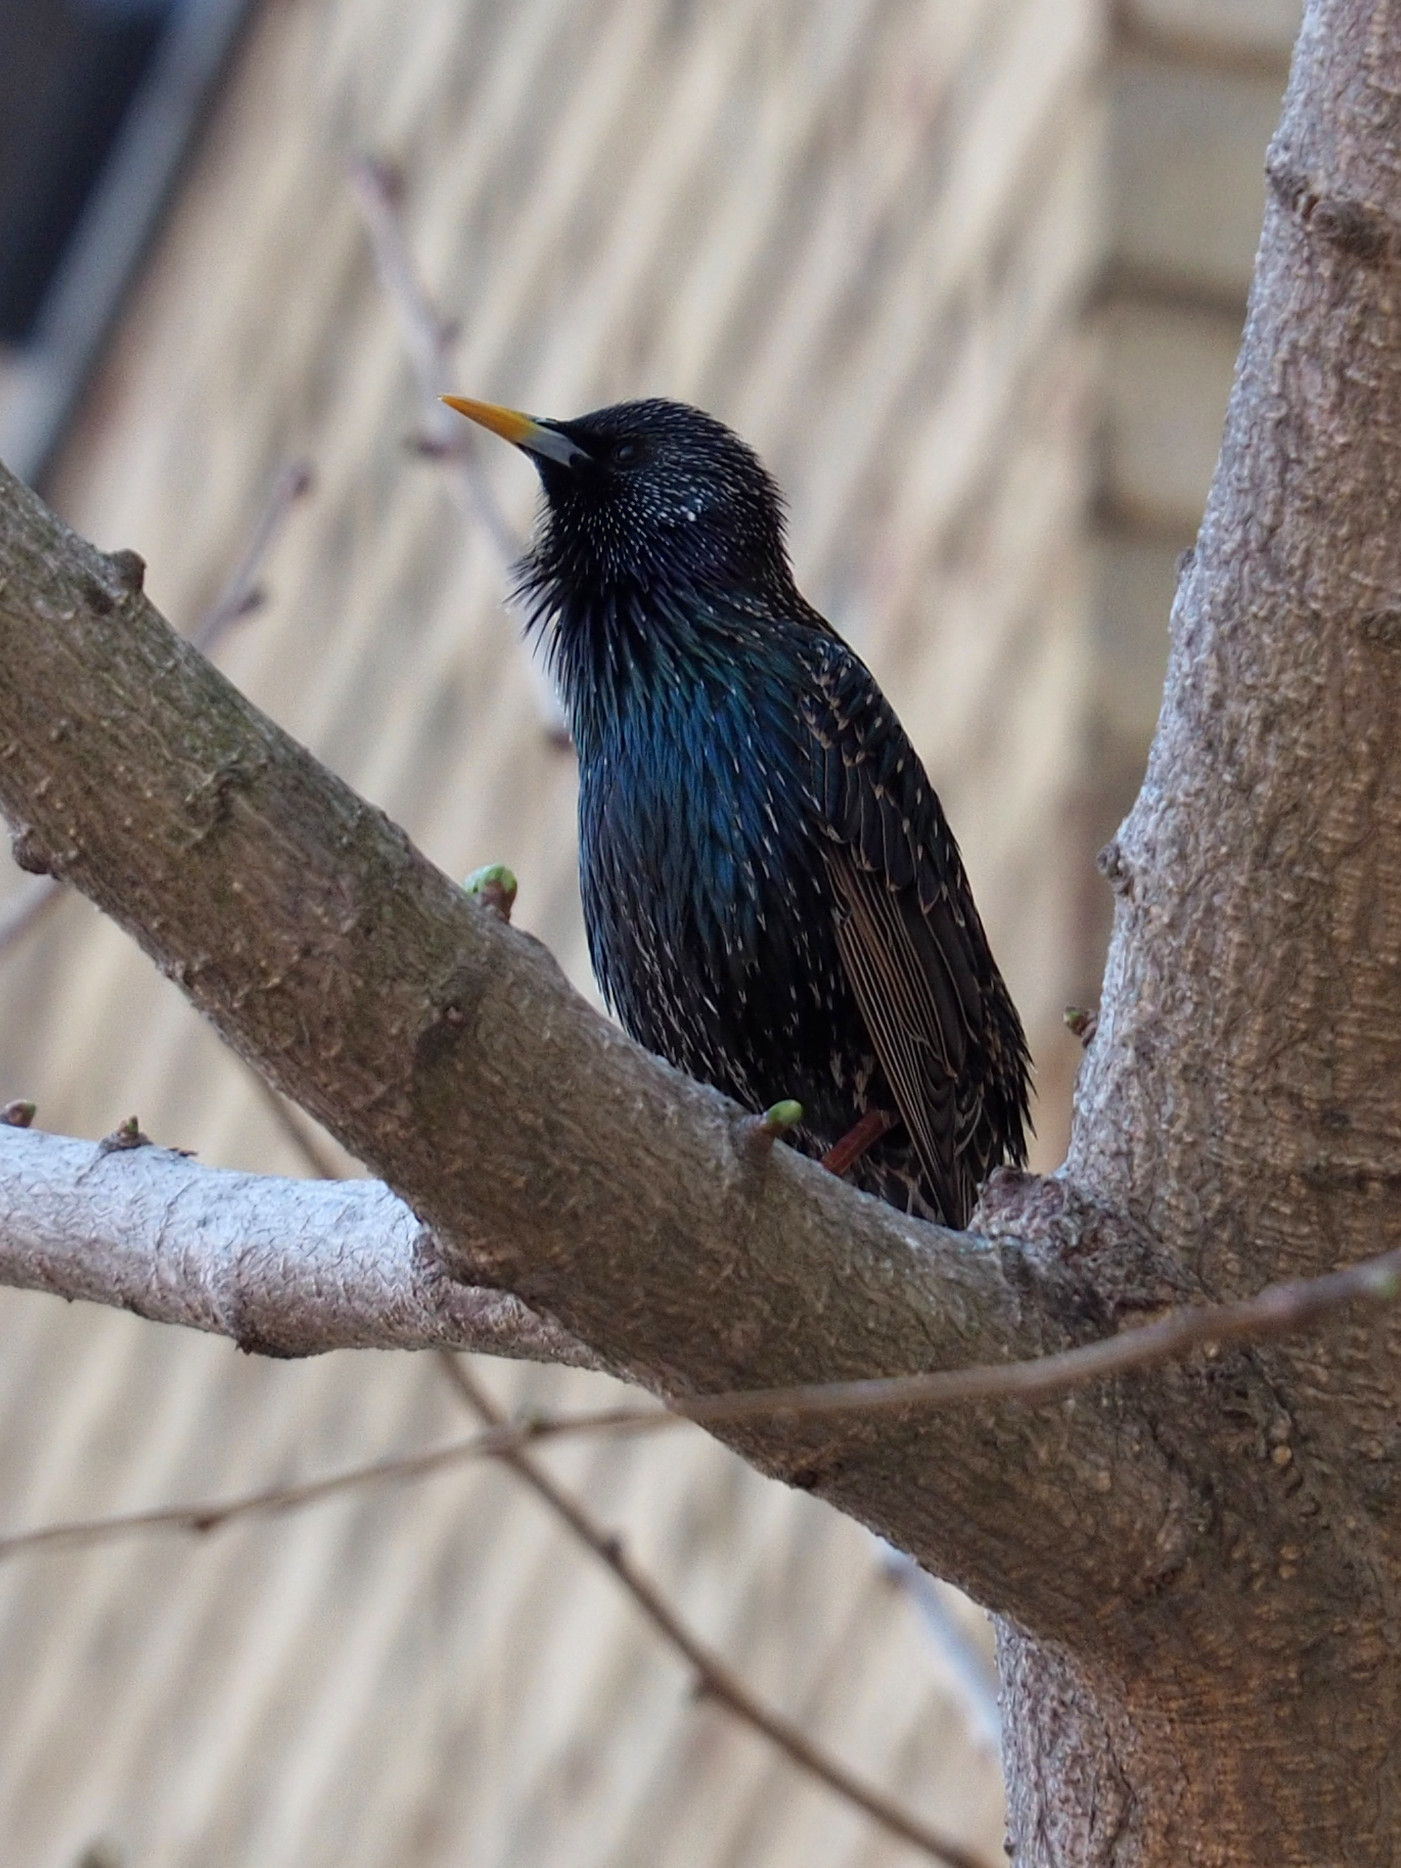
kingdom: Animalia
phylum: Chordata
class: Aves
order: Passeriformes
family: Sturnidae
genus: Sturnus
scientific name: Sturnus vulgaris
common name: Common starling
